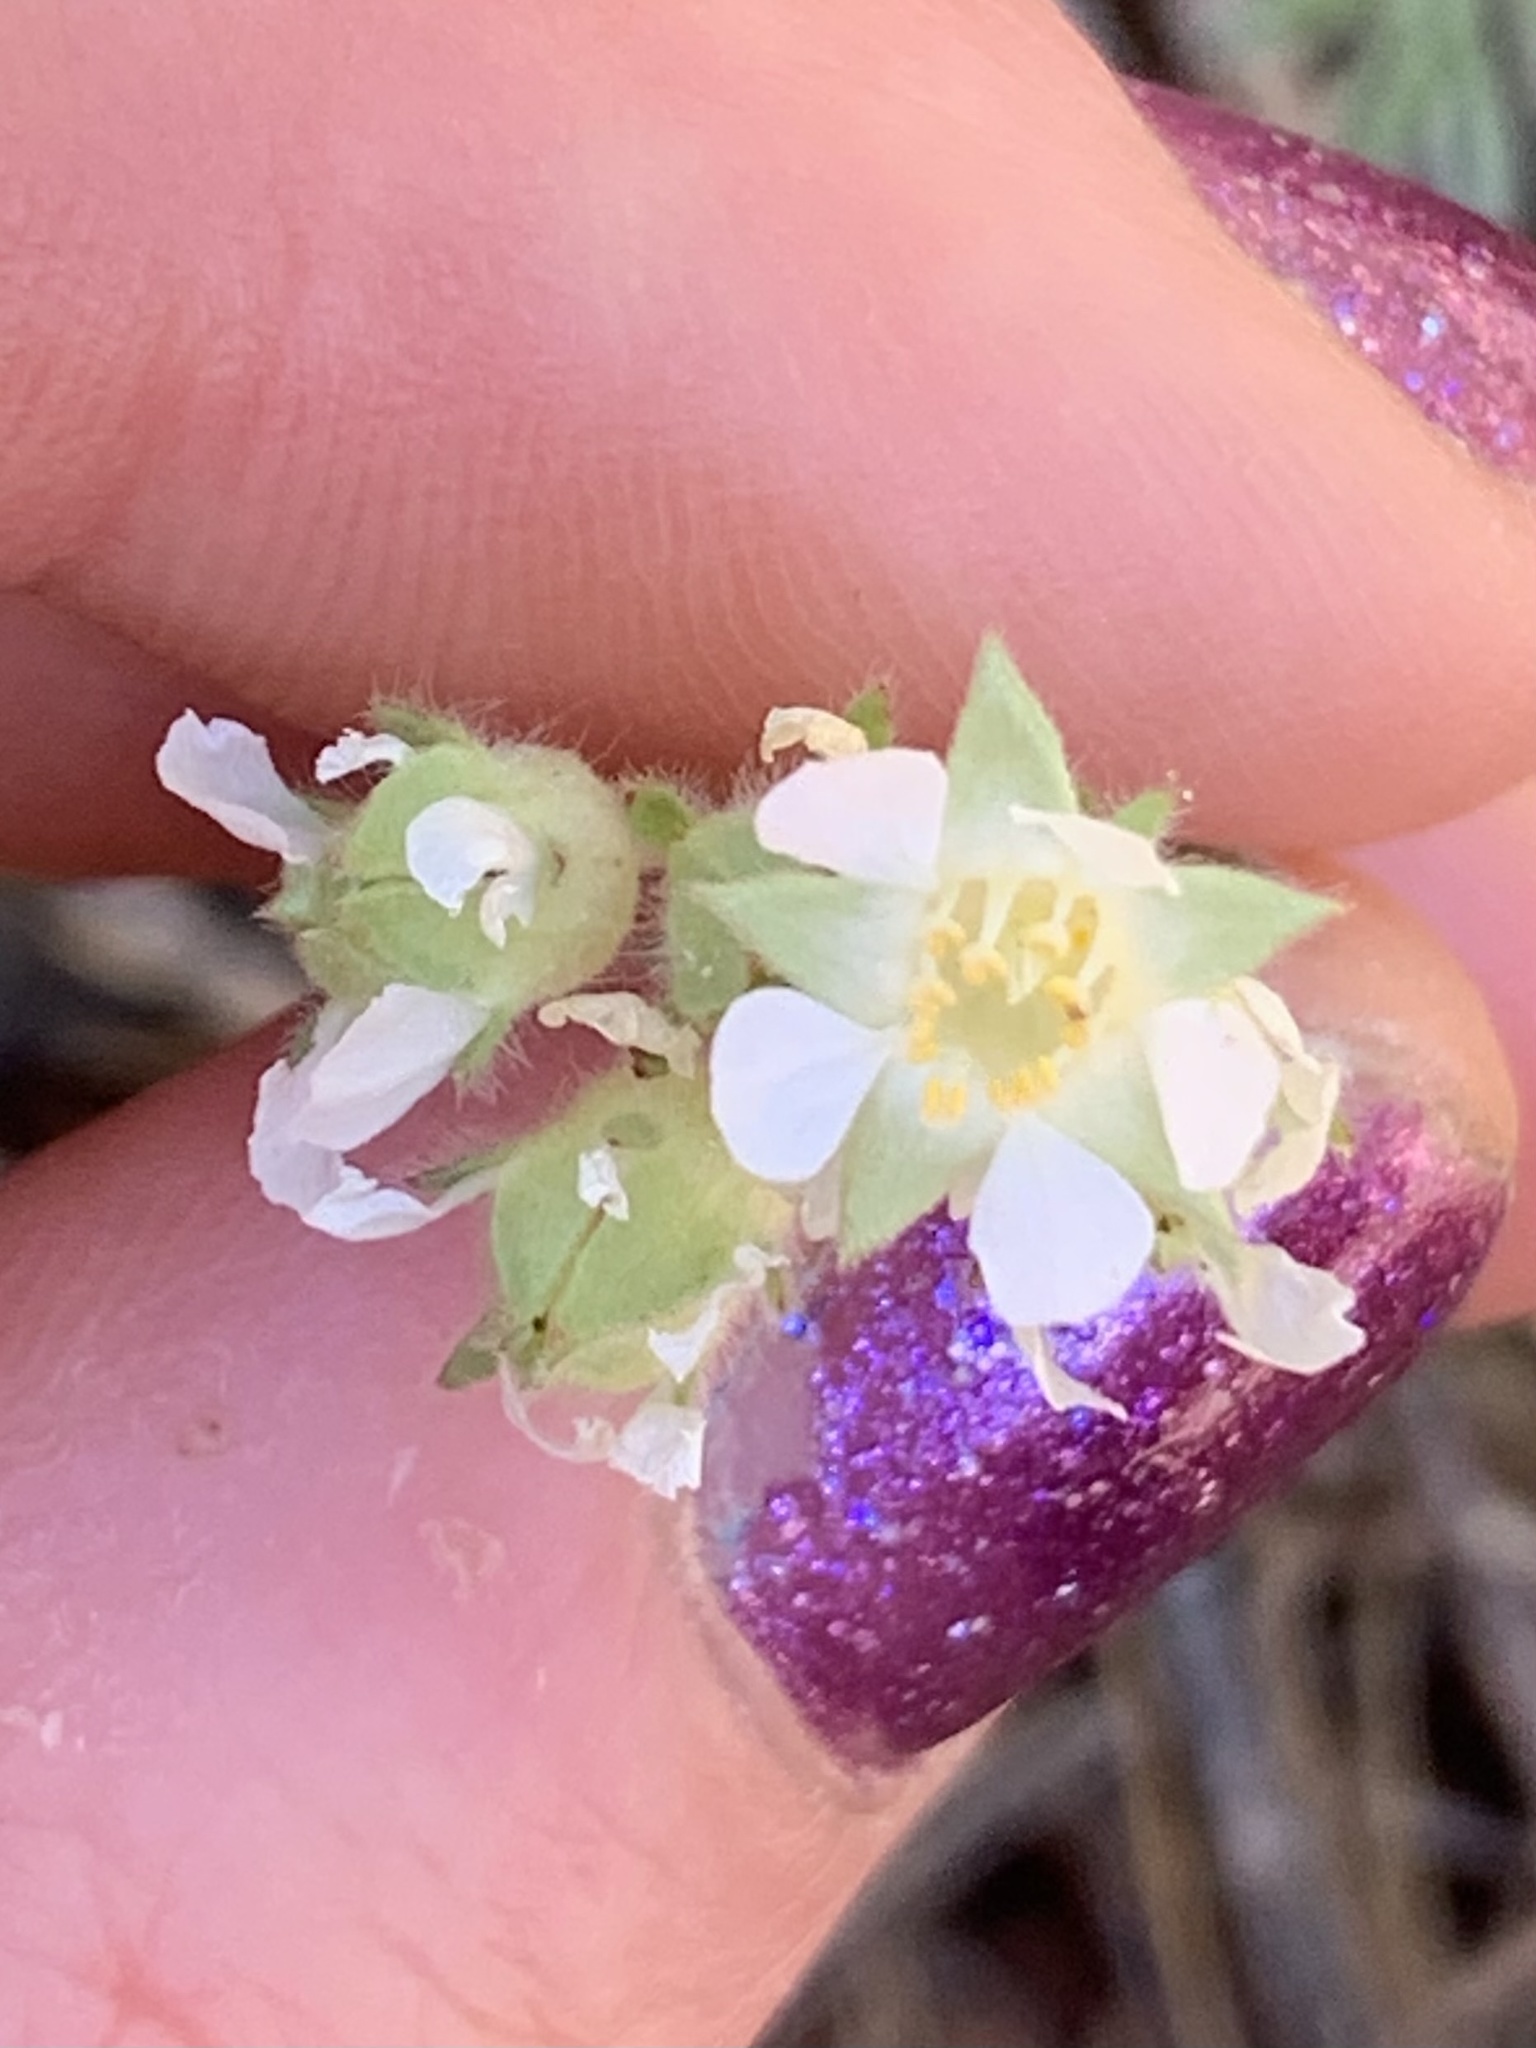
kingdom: Plantae
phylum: Tracheophyta
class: Magnoliopsida
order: Rosales
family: Rosaceae
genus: Potentilla
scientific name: Potentilla congesta
